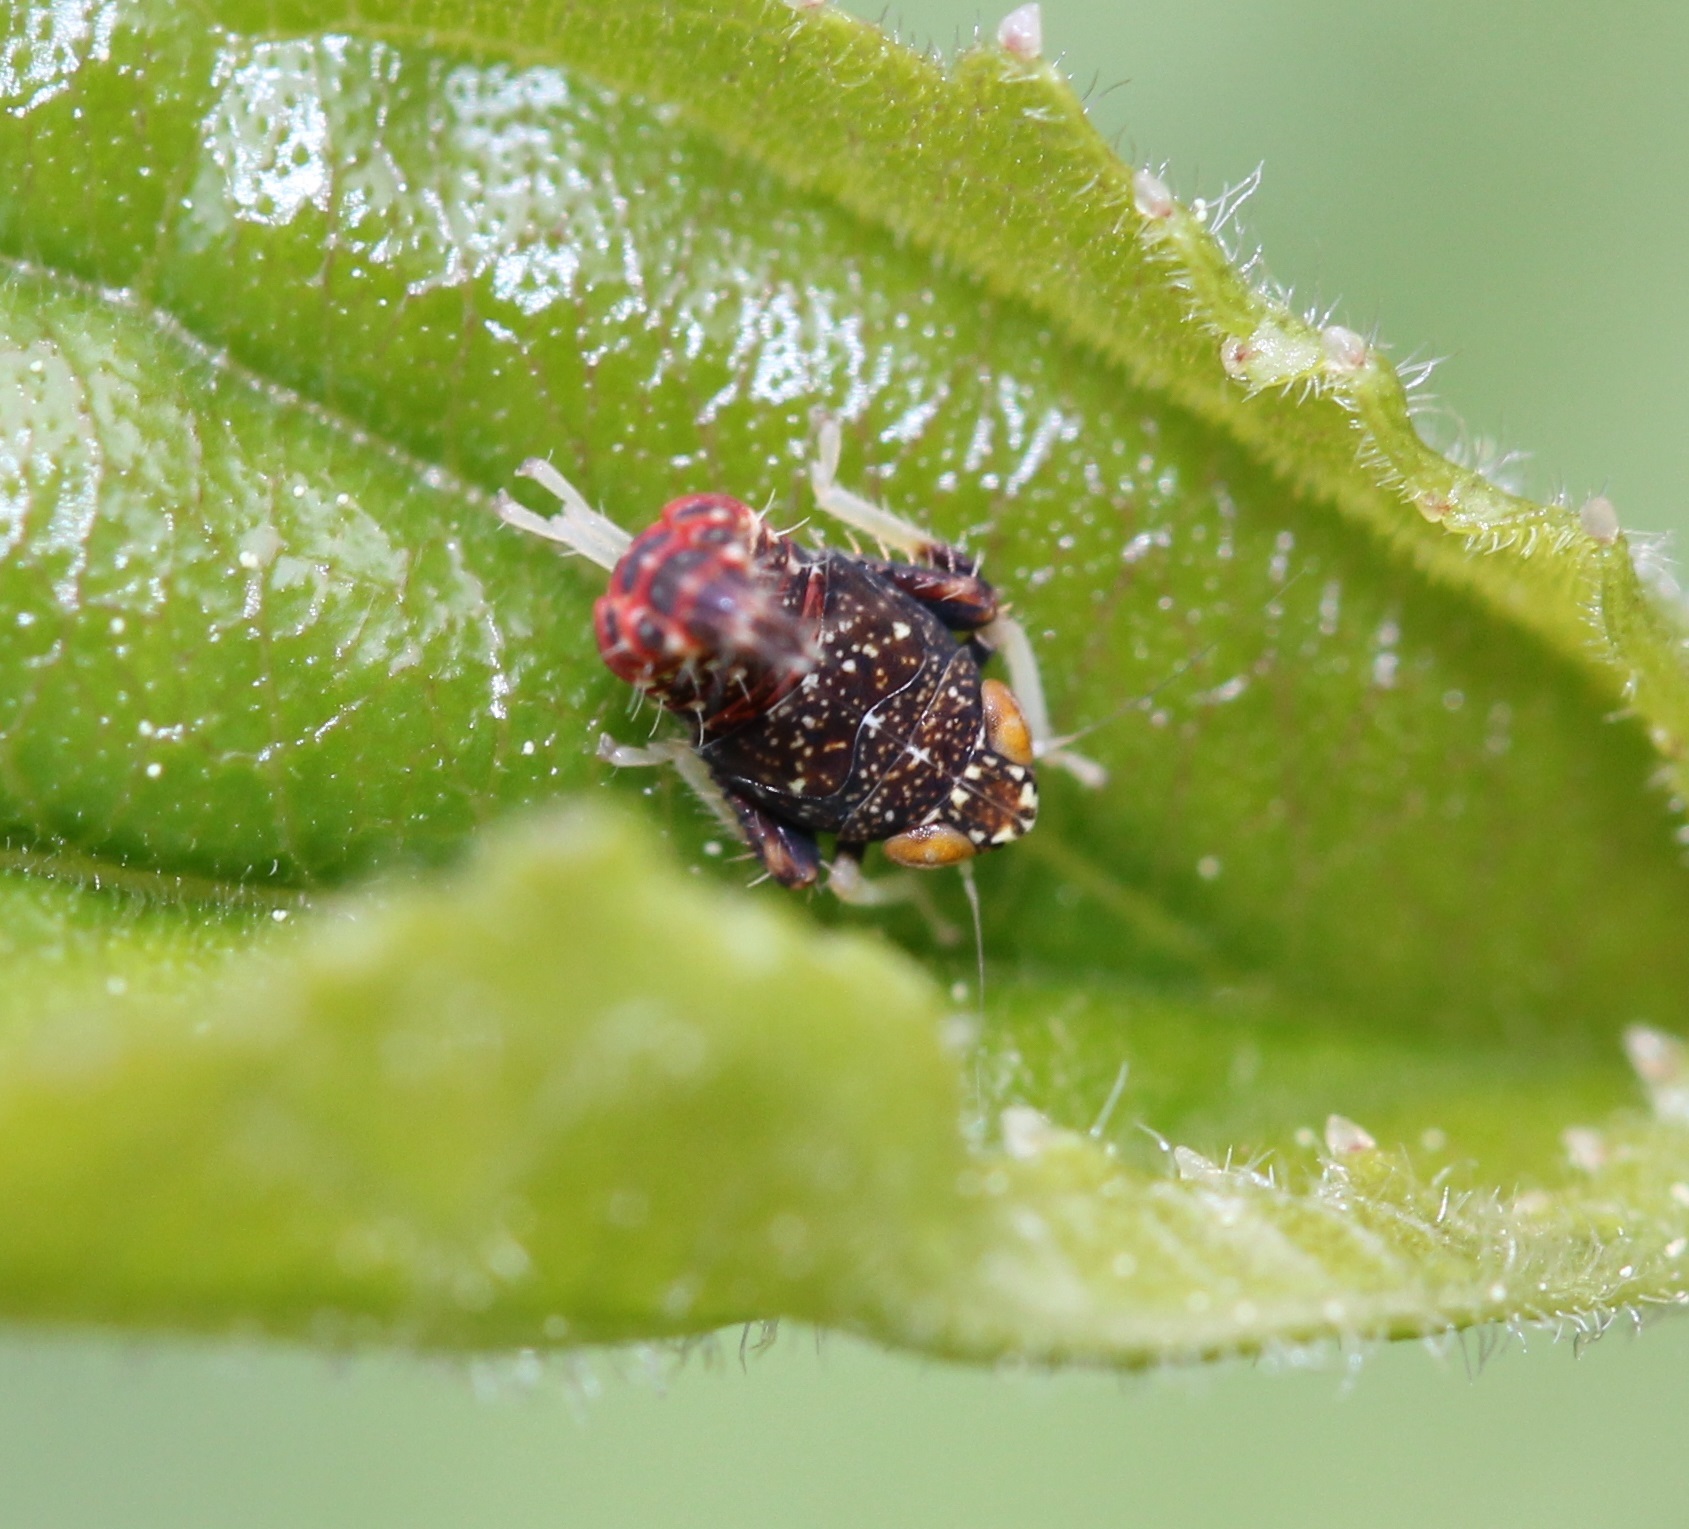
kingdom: Animalia
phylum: Arthropoda
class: Insecta
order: Hemiptera
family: Cicadellidae
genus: Orientus
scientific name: Orientus ishidae
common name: Japanese leafhopper
